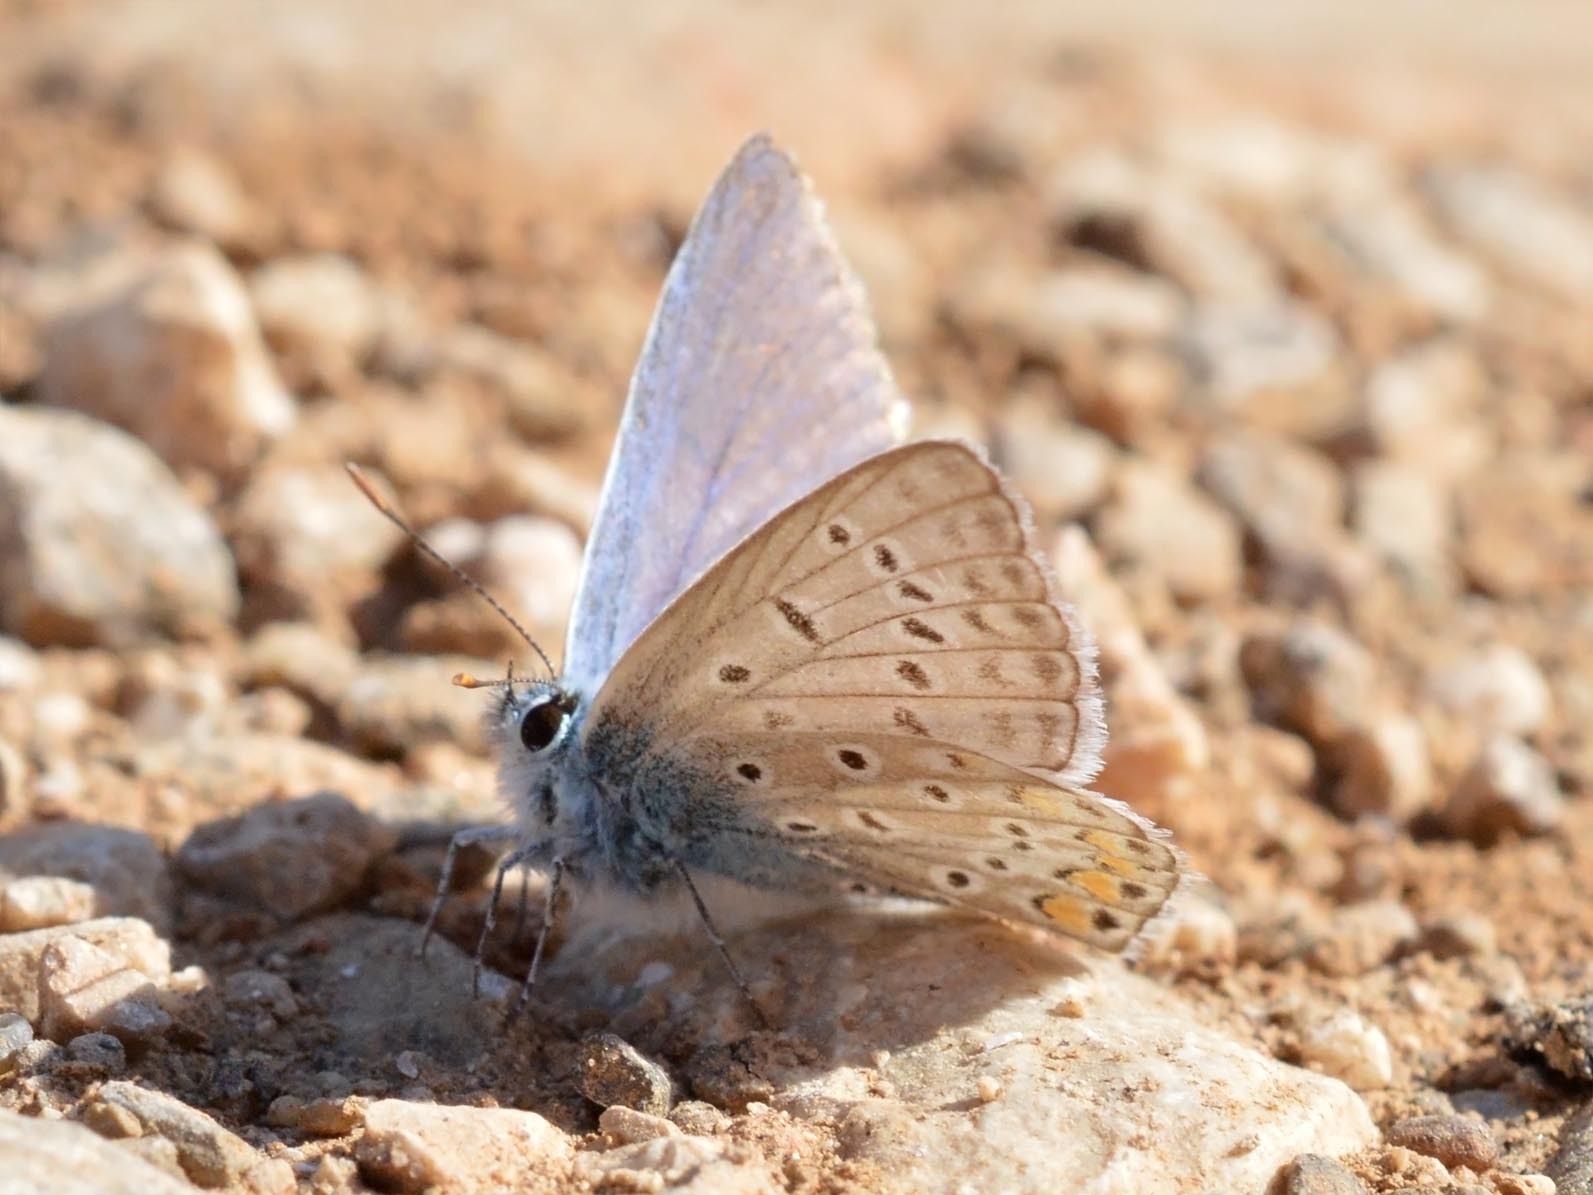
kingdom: Animalia
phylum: Arthropoda
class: Insecta
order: Lepidoptera
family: Lycaenidae
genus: Polyommatus
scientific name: Polyommatus icarus
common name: Common blue
